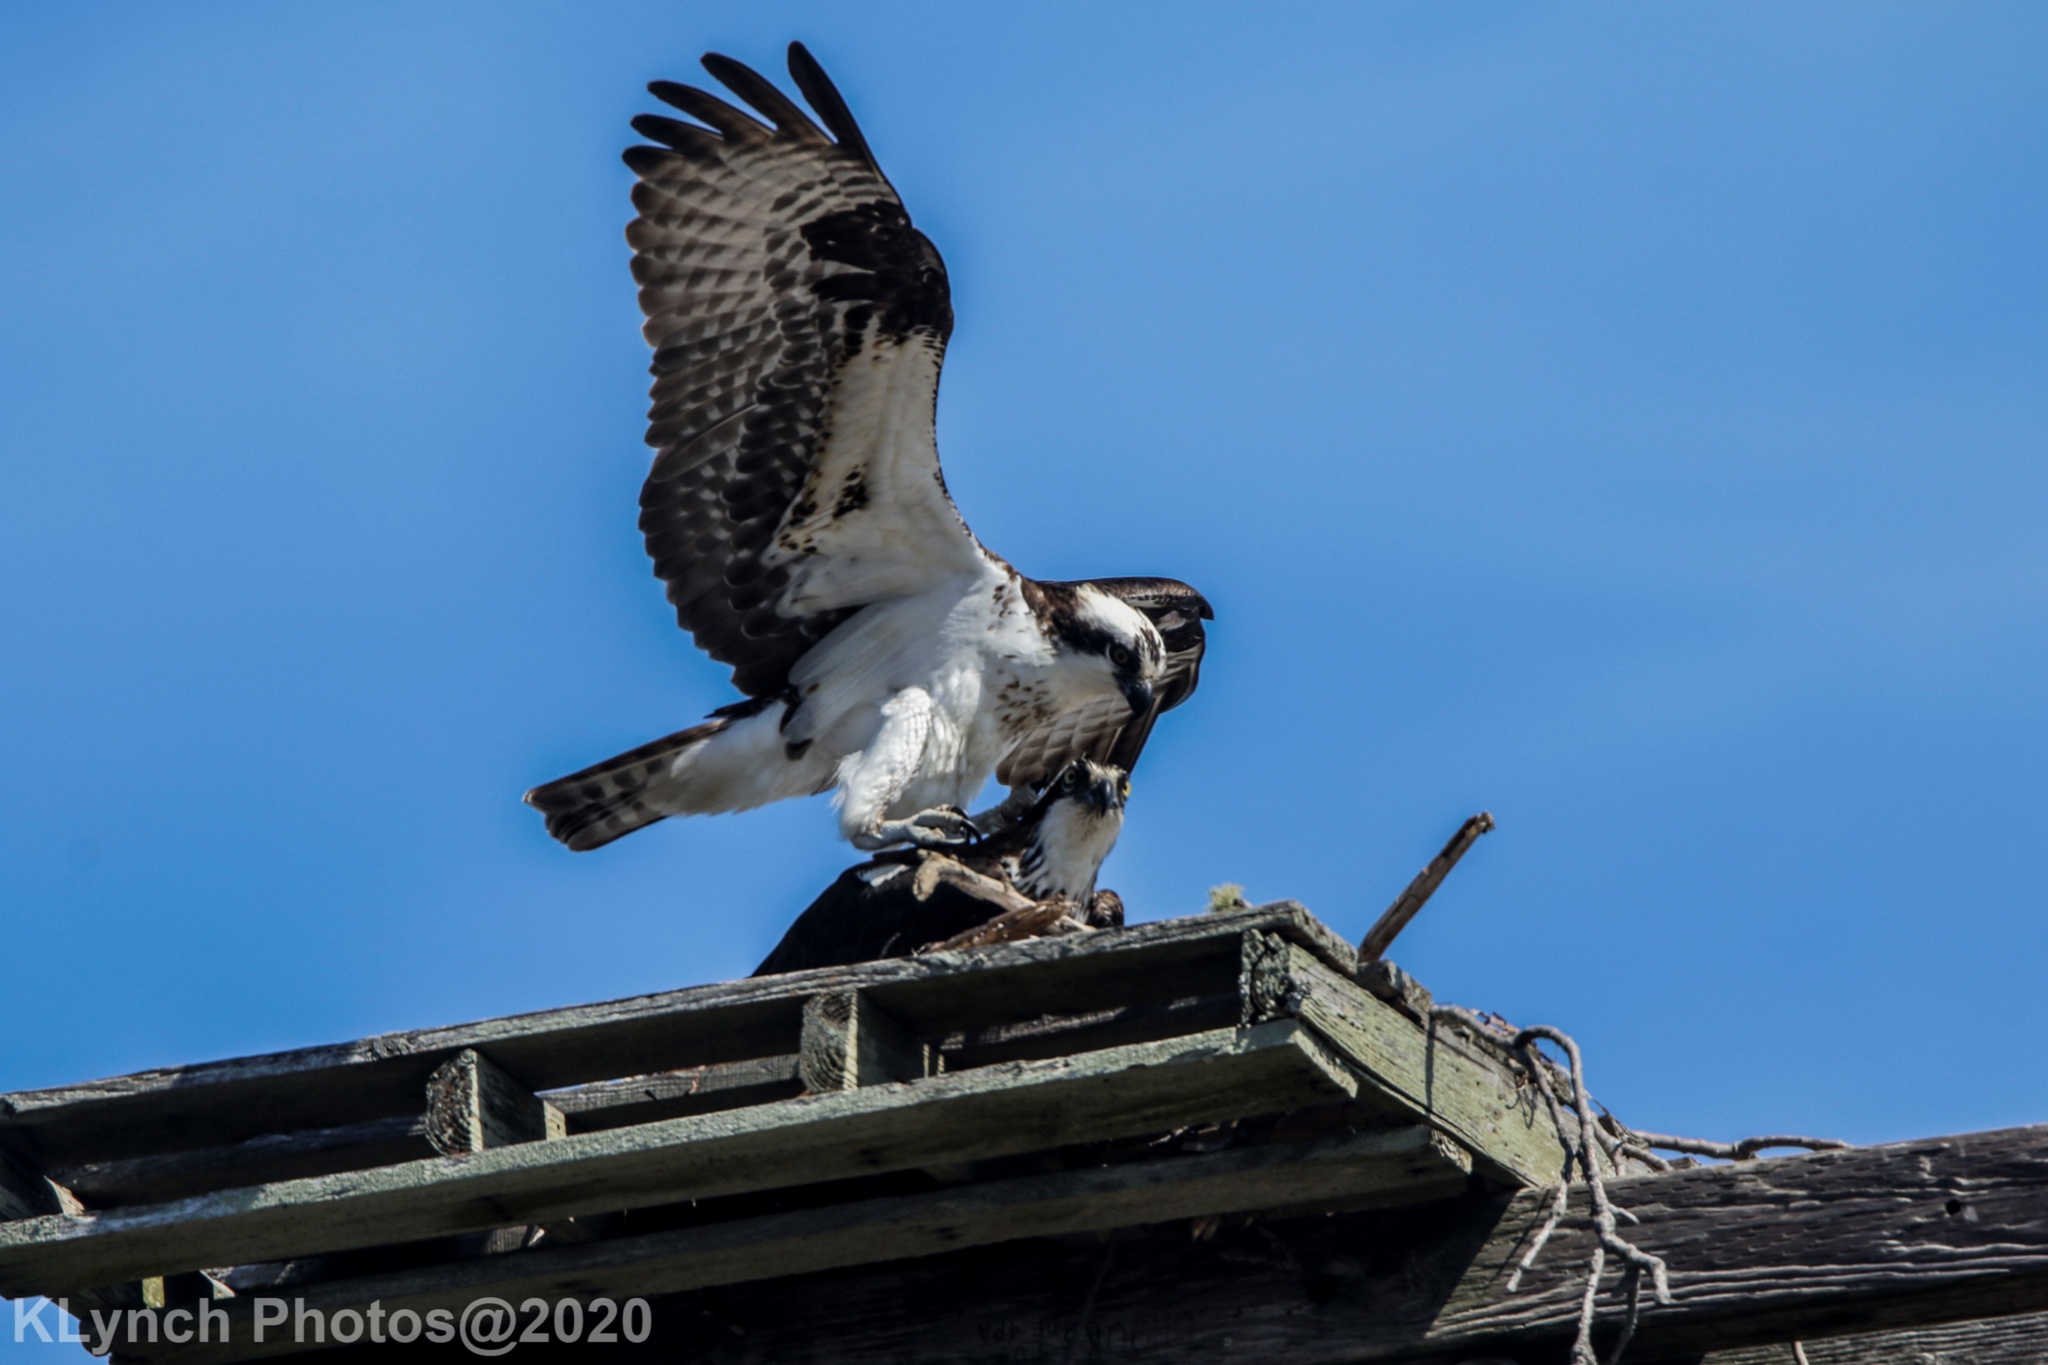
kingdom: Animalia
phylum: Chordata
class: Aves
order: Accipitriformes
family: Pandionidae
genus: Pandion
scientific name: Pandion haliaetus
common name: Osprey
